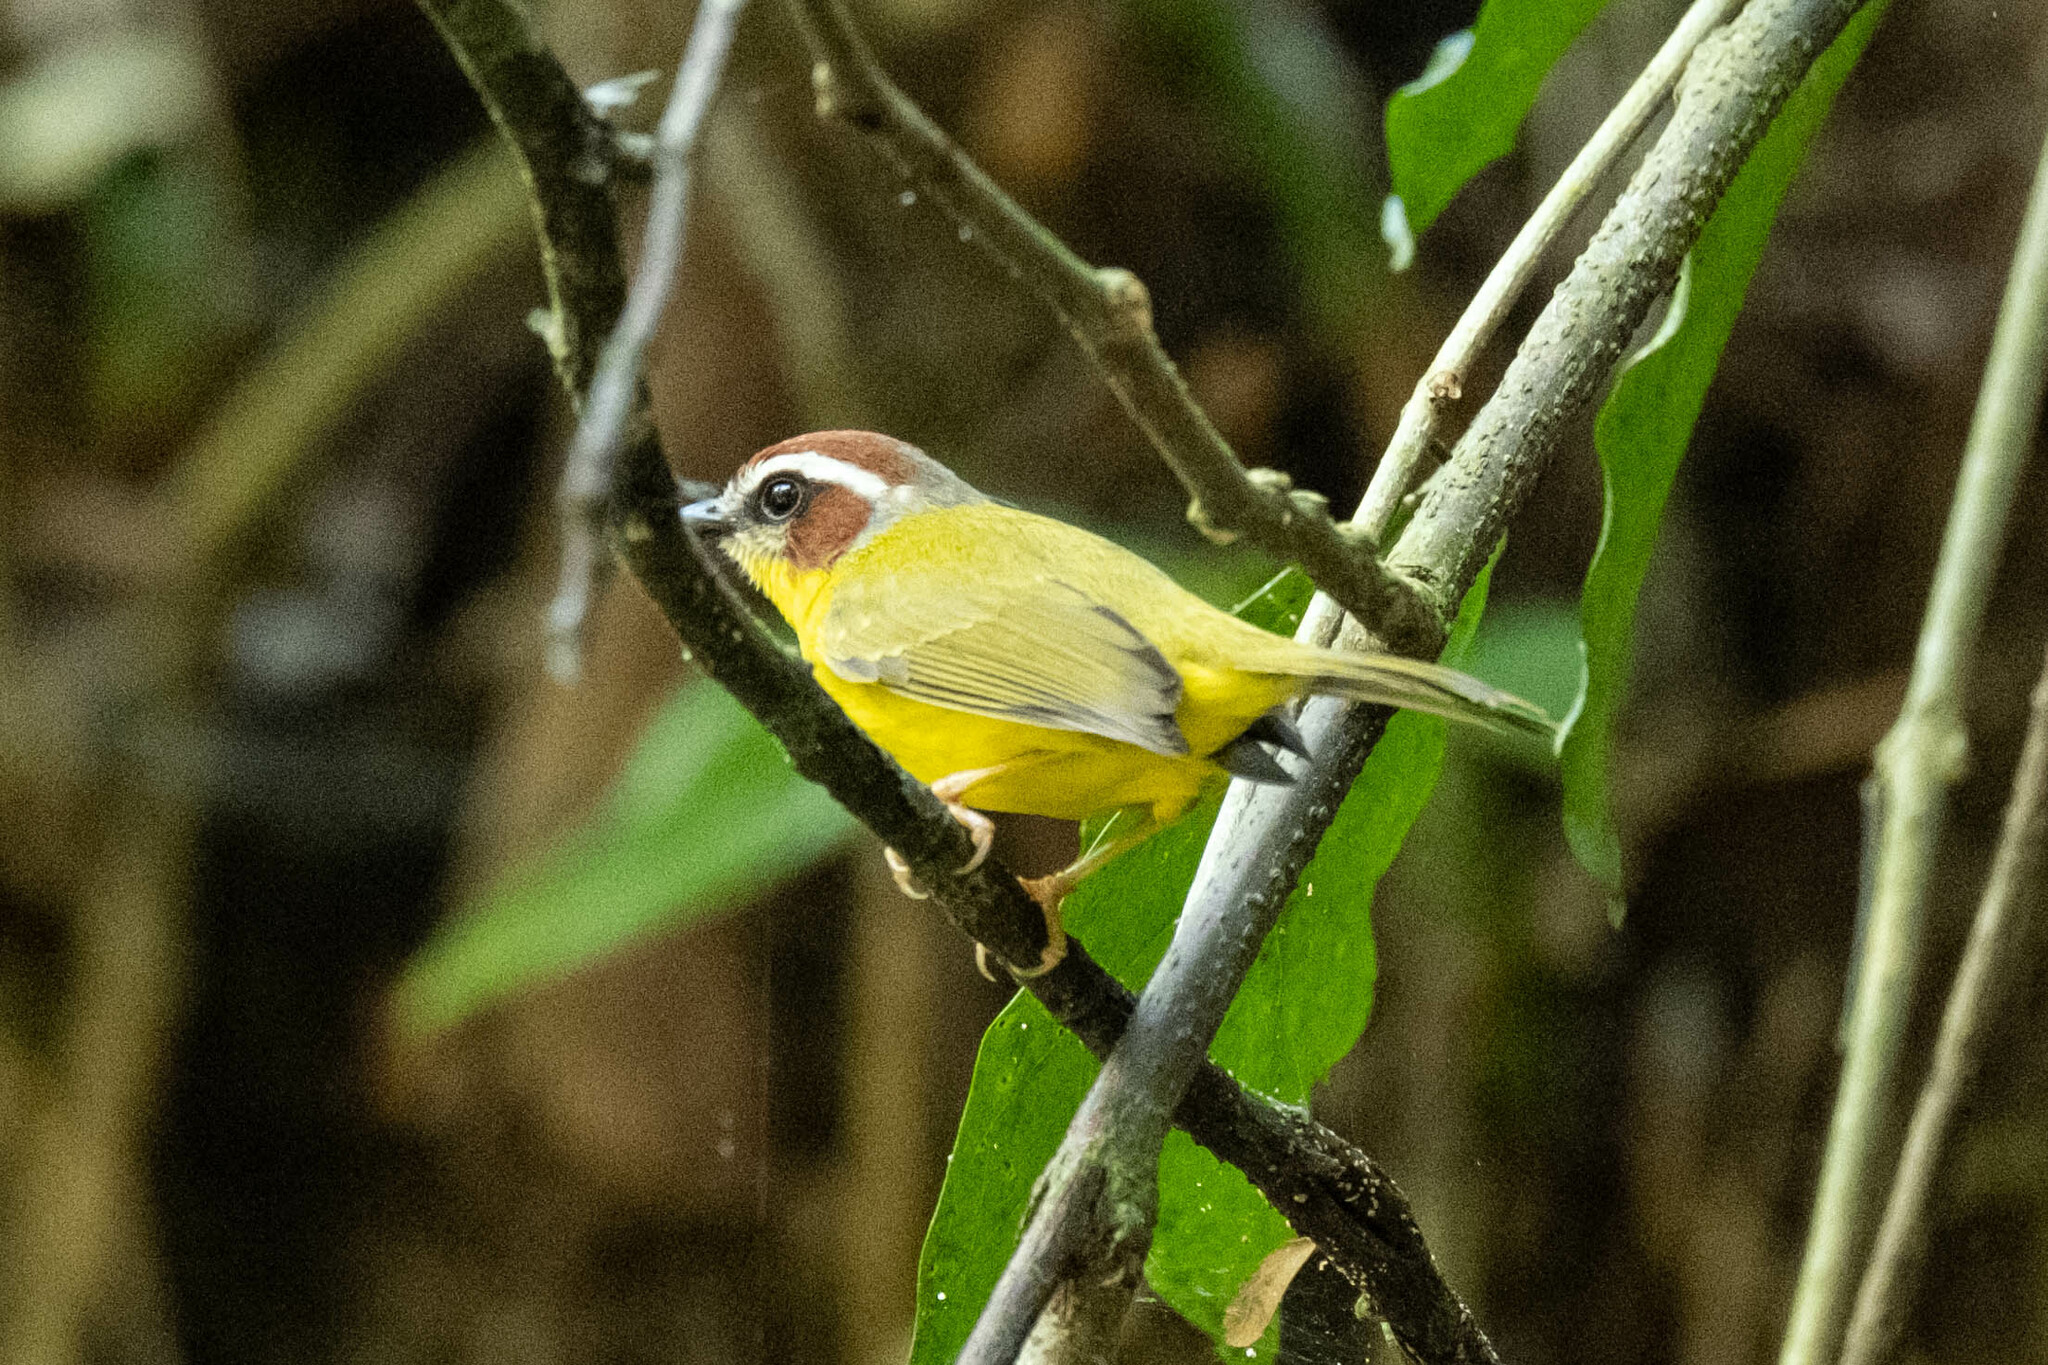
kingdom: Animalia
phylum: Chordata
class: Aves
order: Passeriformes
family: Parulidae
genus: Basileuterus
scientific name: Basileuterus rufifrons
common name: Rufous-capped warbler
